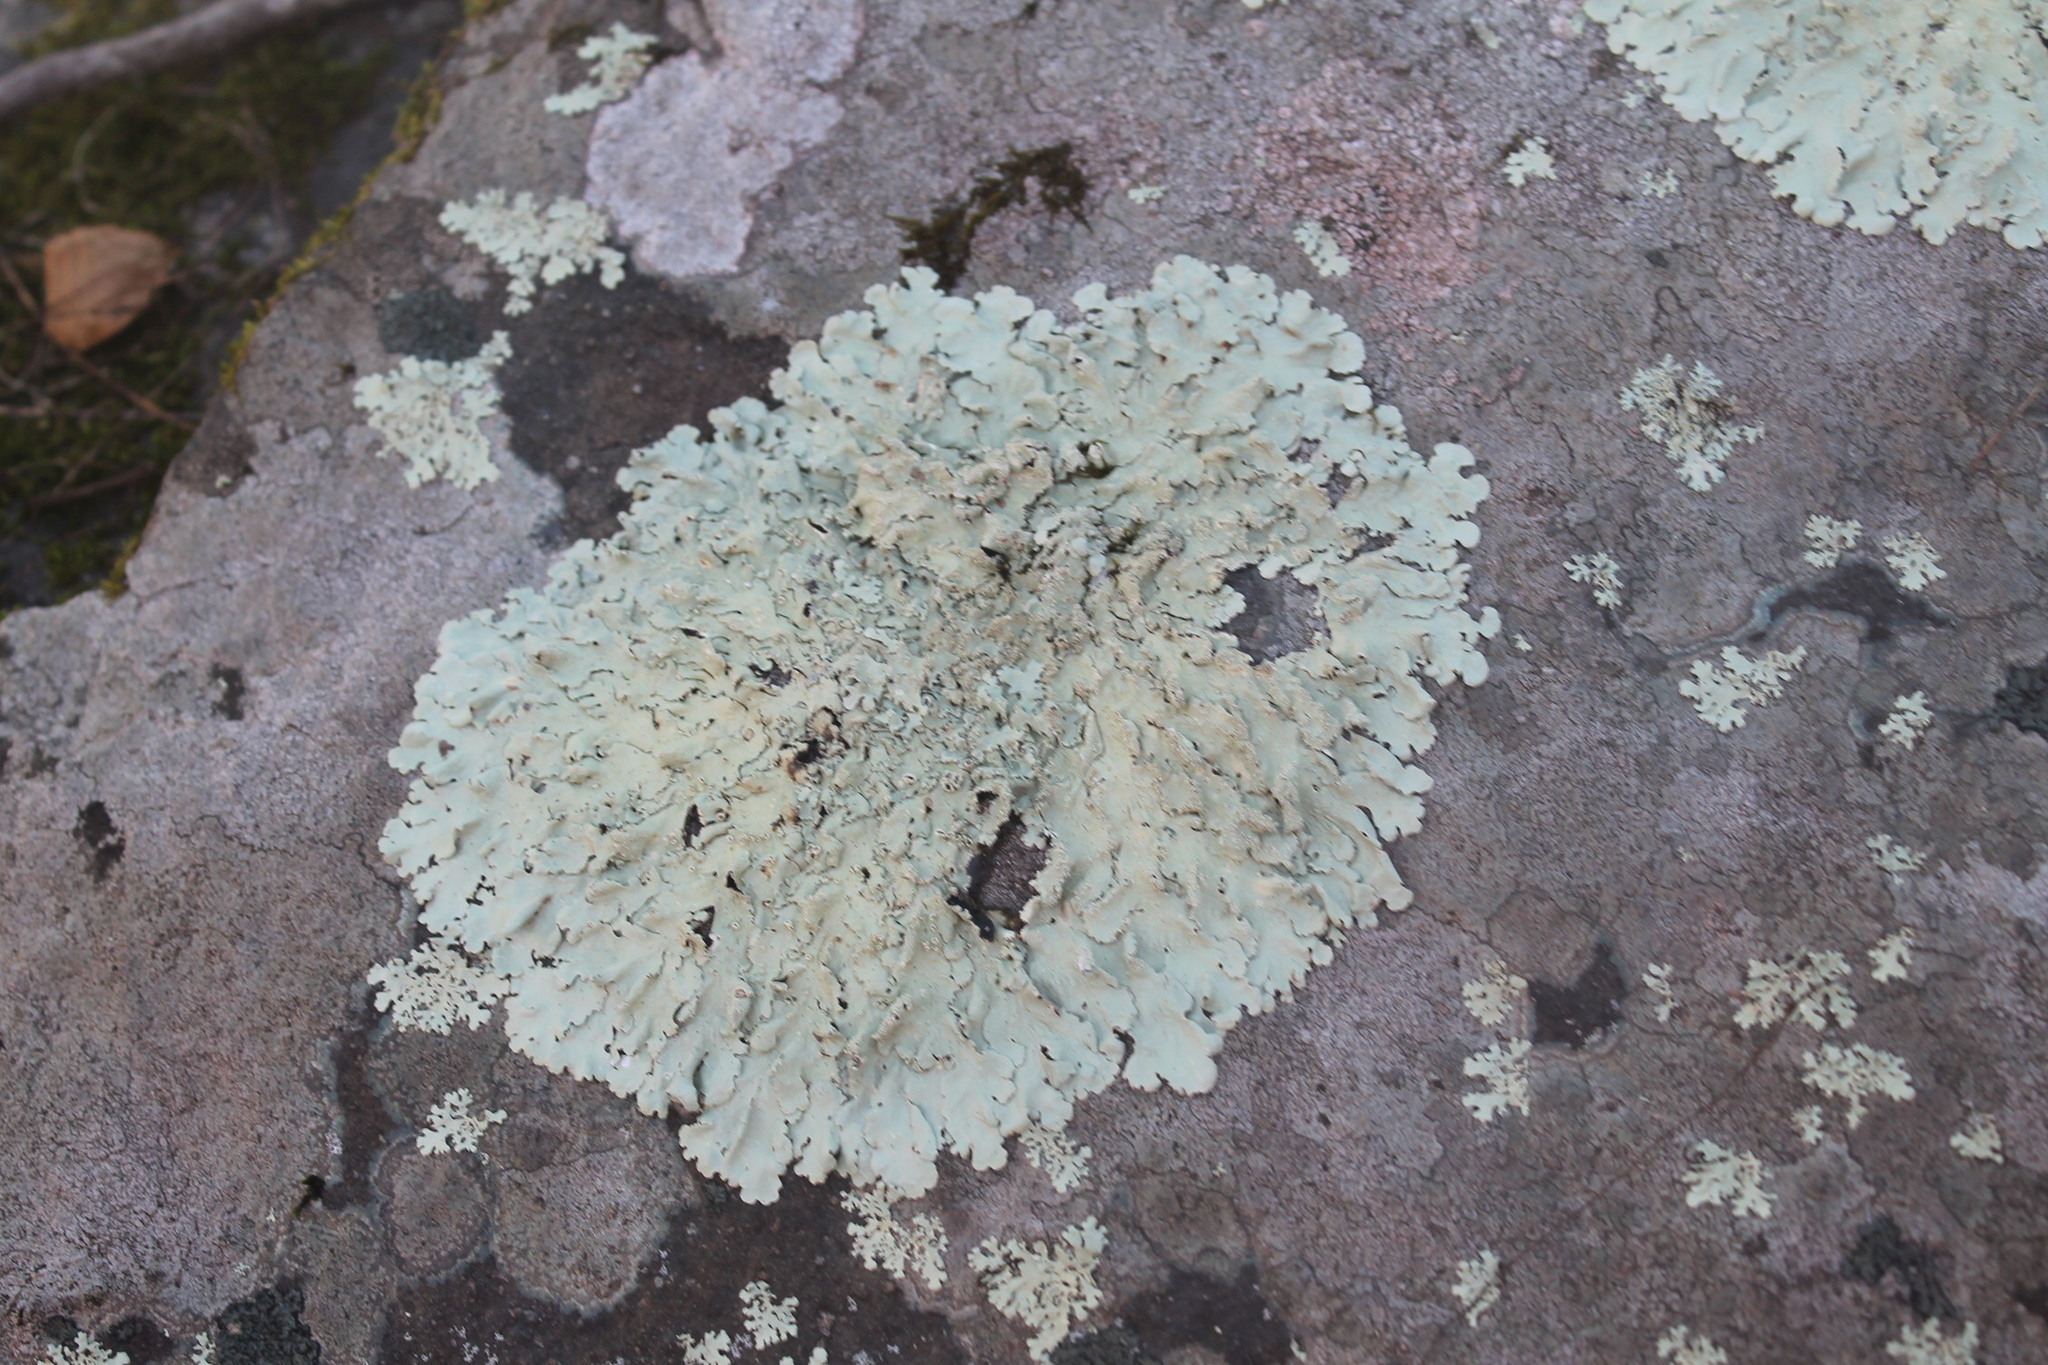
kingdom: Fungi
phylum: Ascomycota
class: Lecanoromycetes
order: Lecanorales
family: Parmeliaceae
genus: Flavoparmelia
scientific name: Flavoparmelia baltimorensis
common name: Rock greenshield
